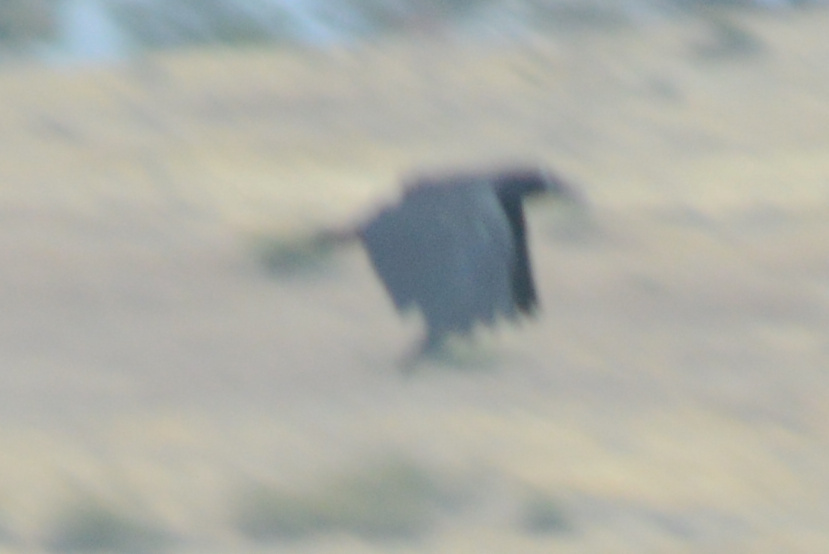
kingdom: Animalia
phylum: Chordata
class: Aves
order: Passeriformes
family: Corvidae
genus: Corvus
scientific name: Corvus tasmanicus
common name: Forest raven
